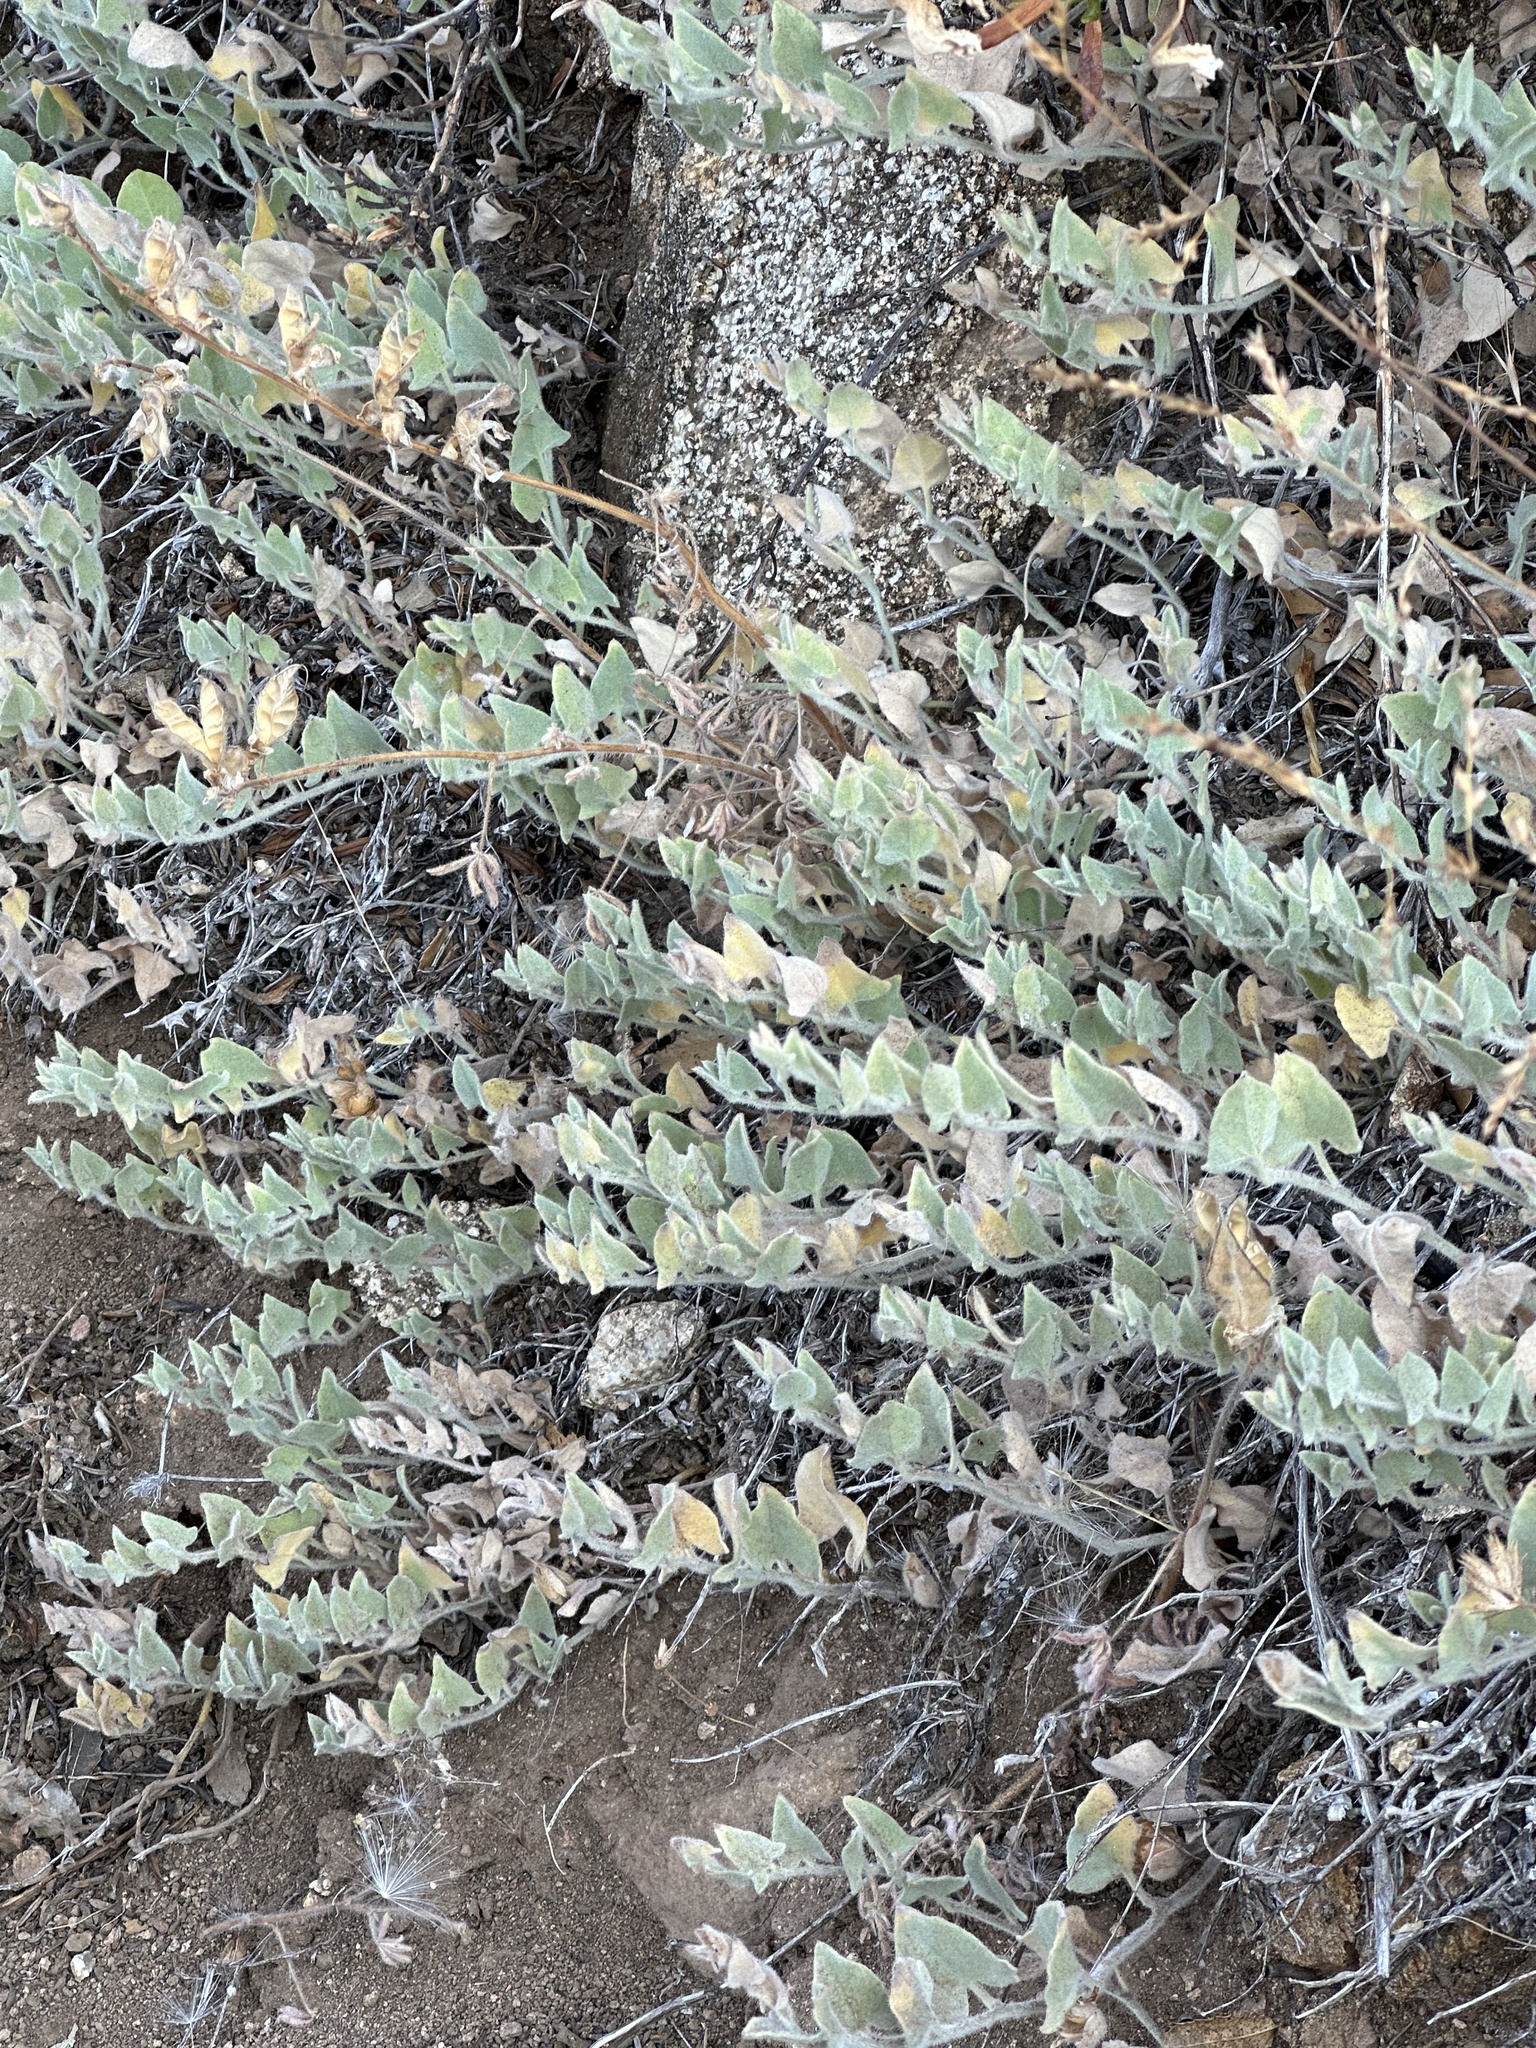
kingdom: Plantae
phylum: Tracheophyta
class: Magnoliopsida
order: Solanales
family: Convolvulaceae
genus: Calystegia
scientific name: Calystegia malacophylla
